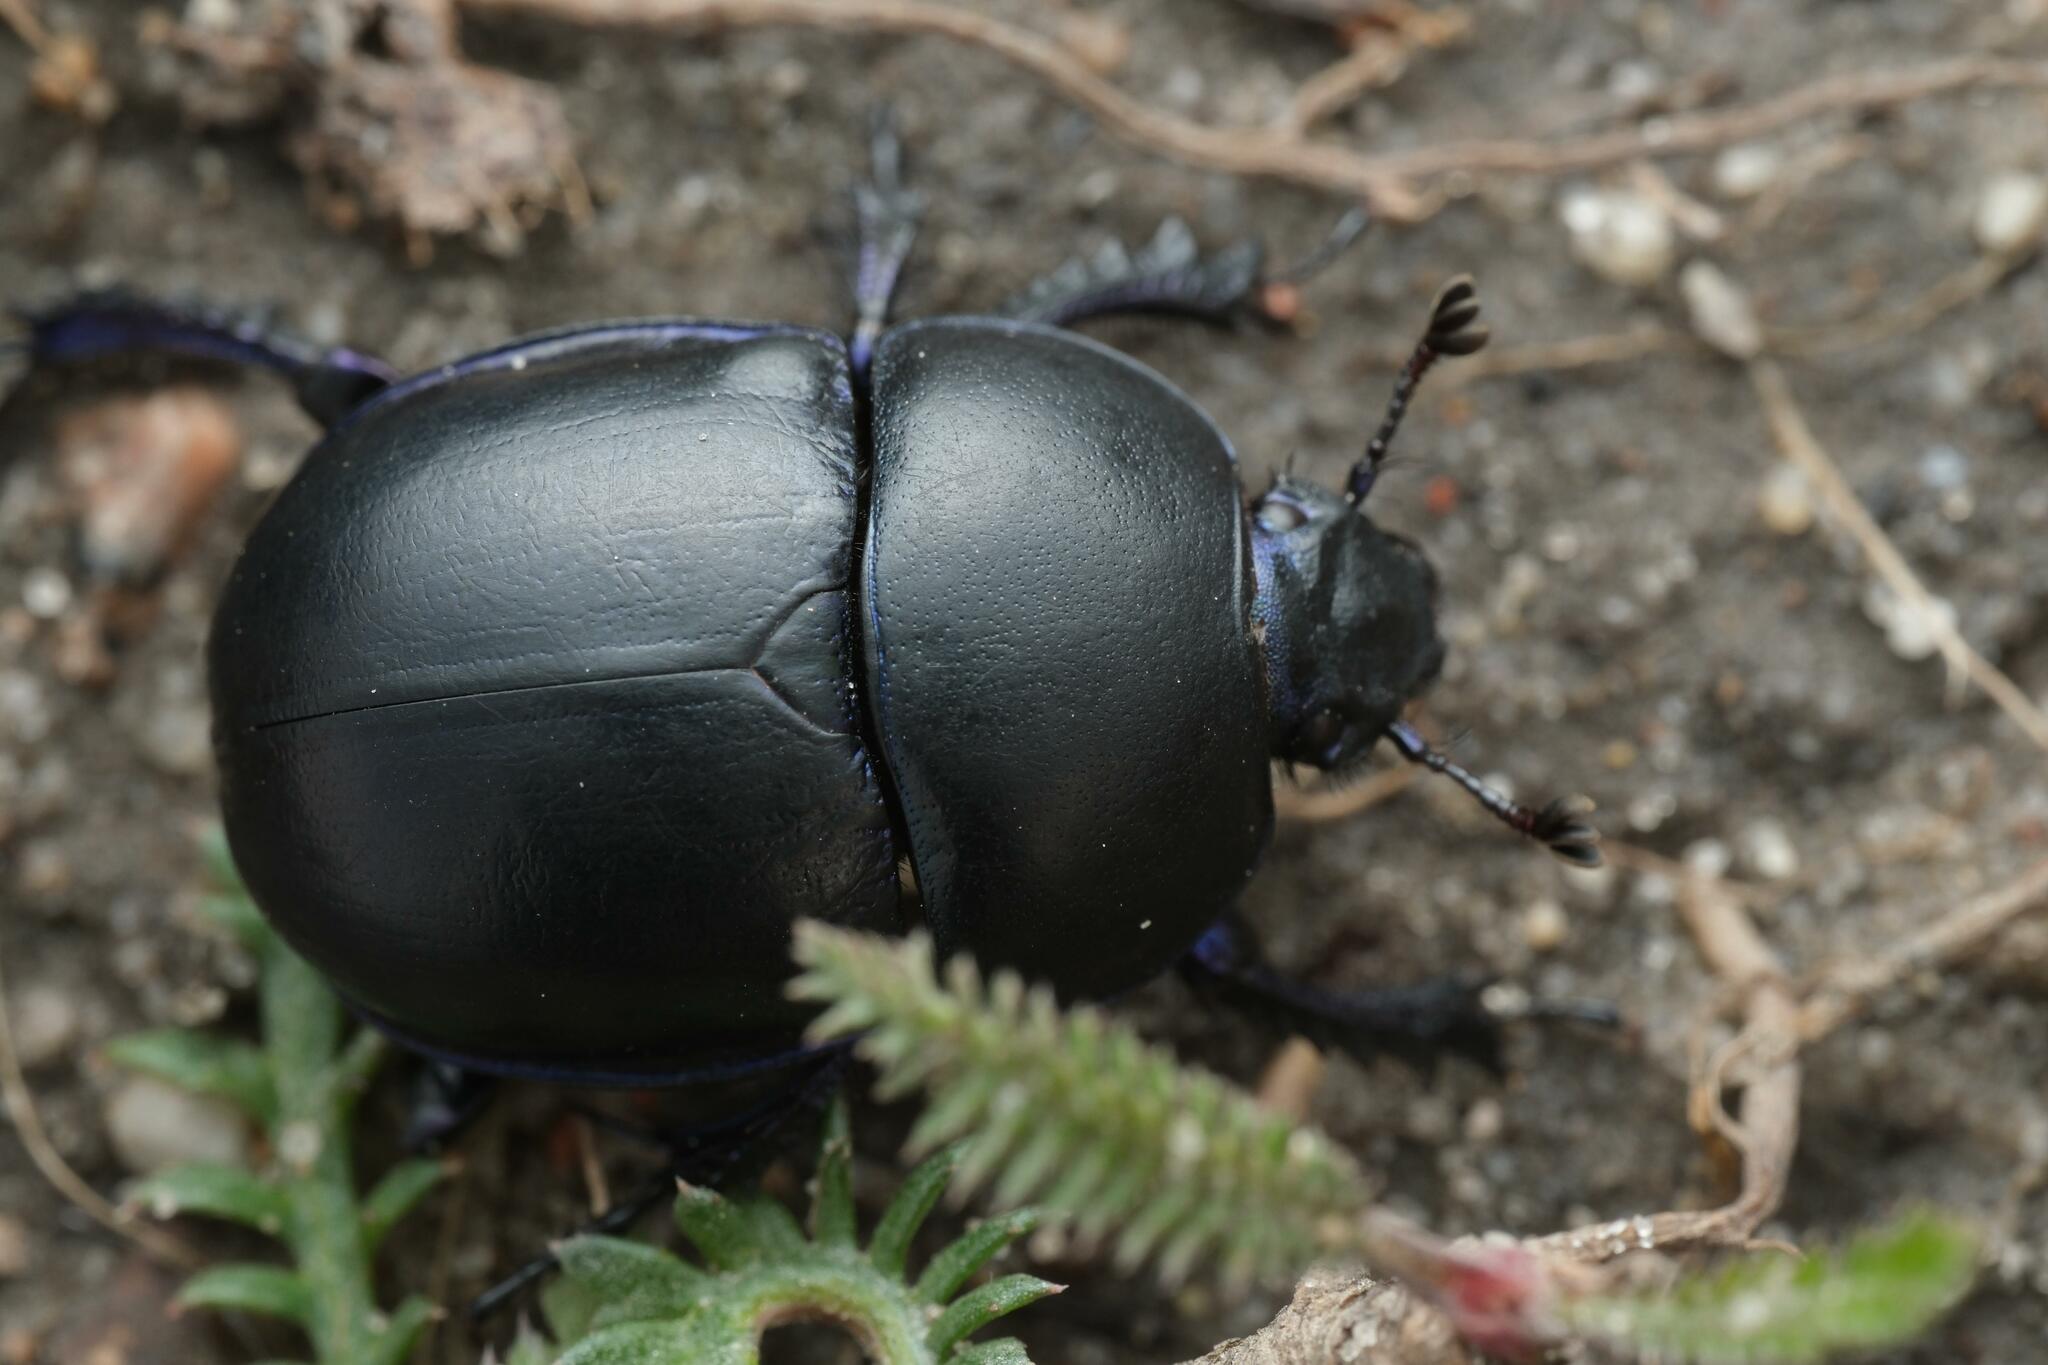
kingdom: Animalia
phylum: Arthropoda
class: Insecta
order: Coleoptera
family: Geotrupidae
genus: Trypocopris
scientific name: Trypocopris vernalis
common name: Spring dumbledor
